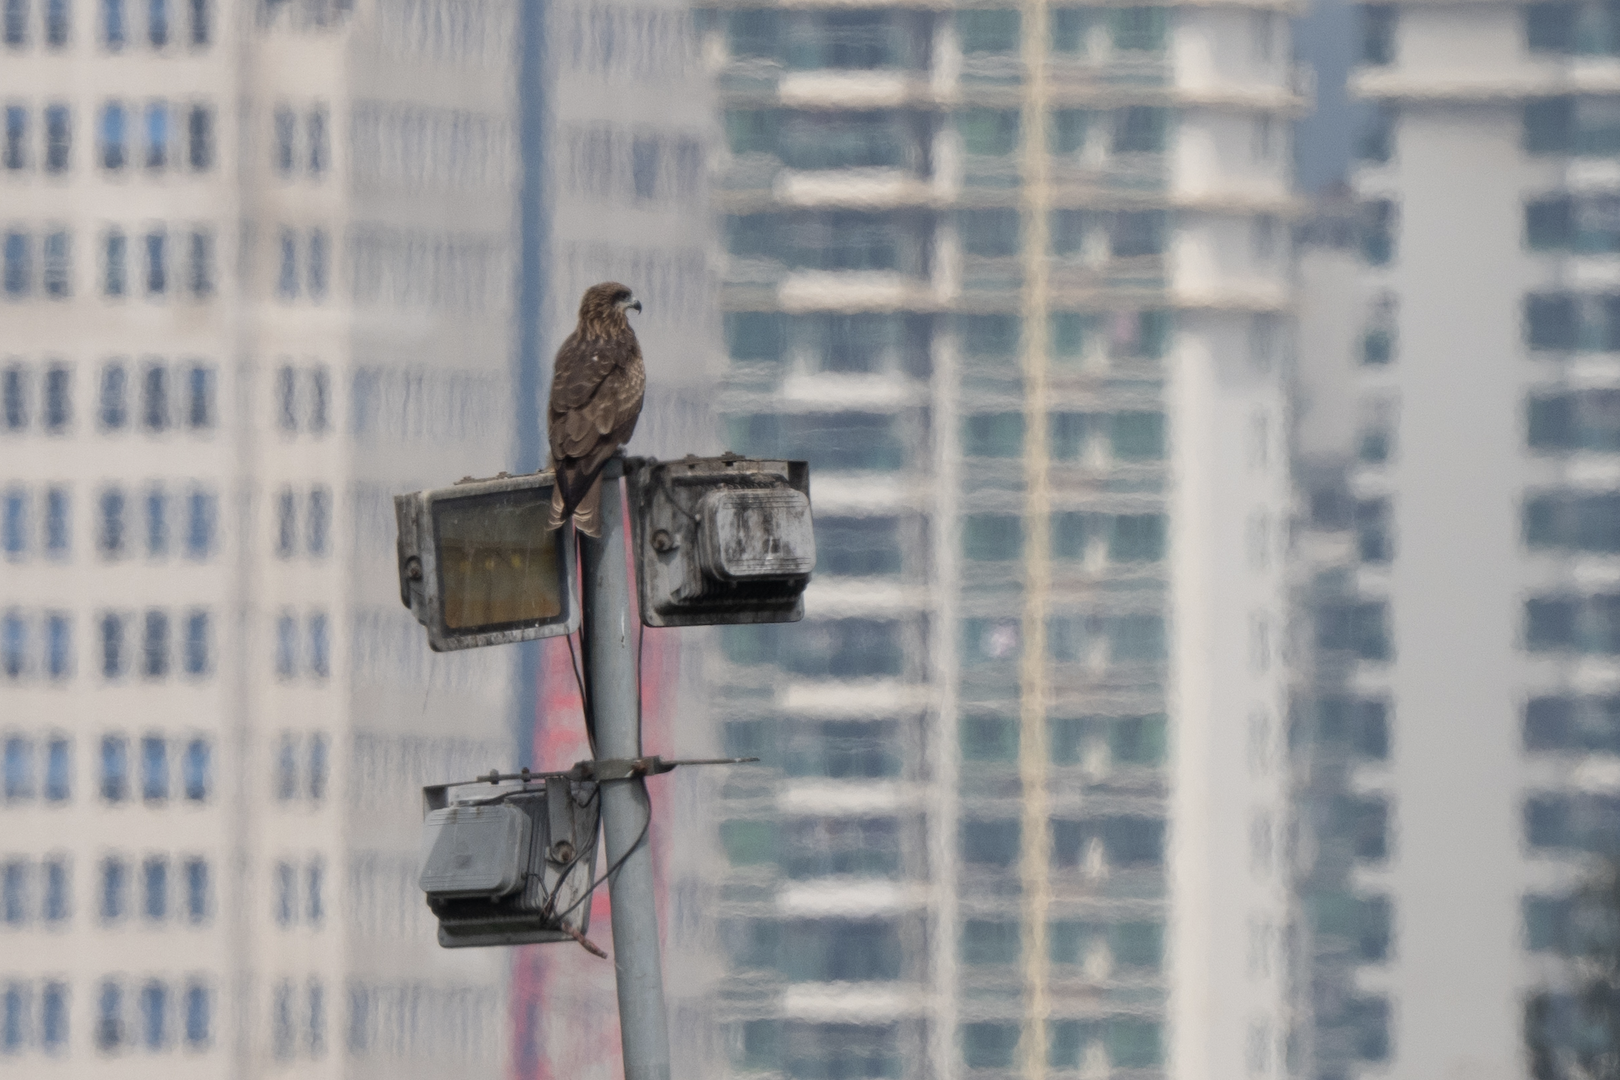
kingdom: Animalia
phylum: Chordata
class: Aves
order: Accipitriformes
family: Accipitridae
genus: Milvus
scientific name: Milvus migrans
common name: Black kite
